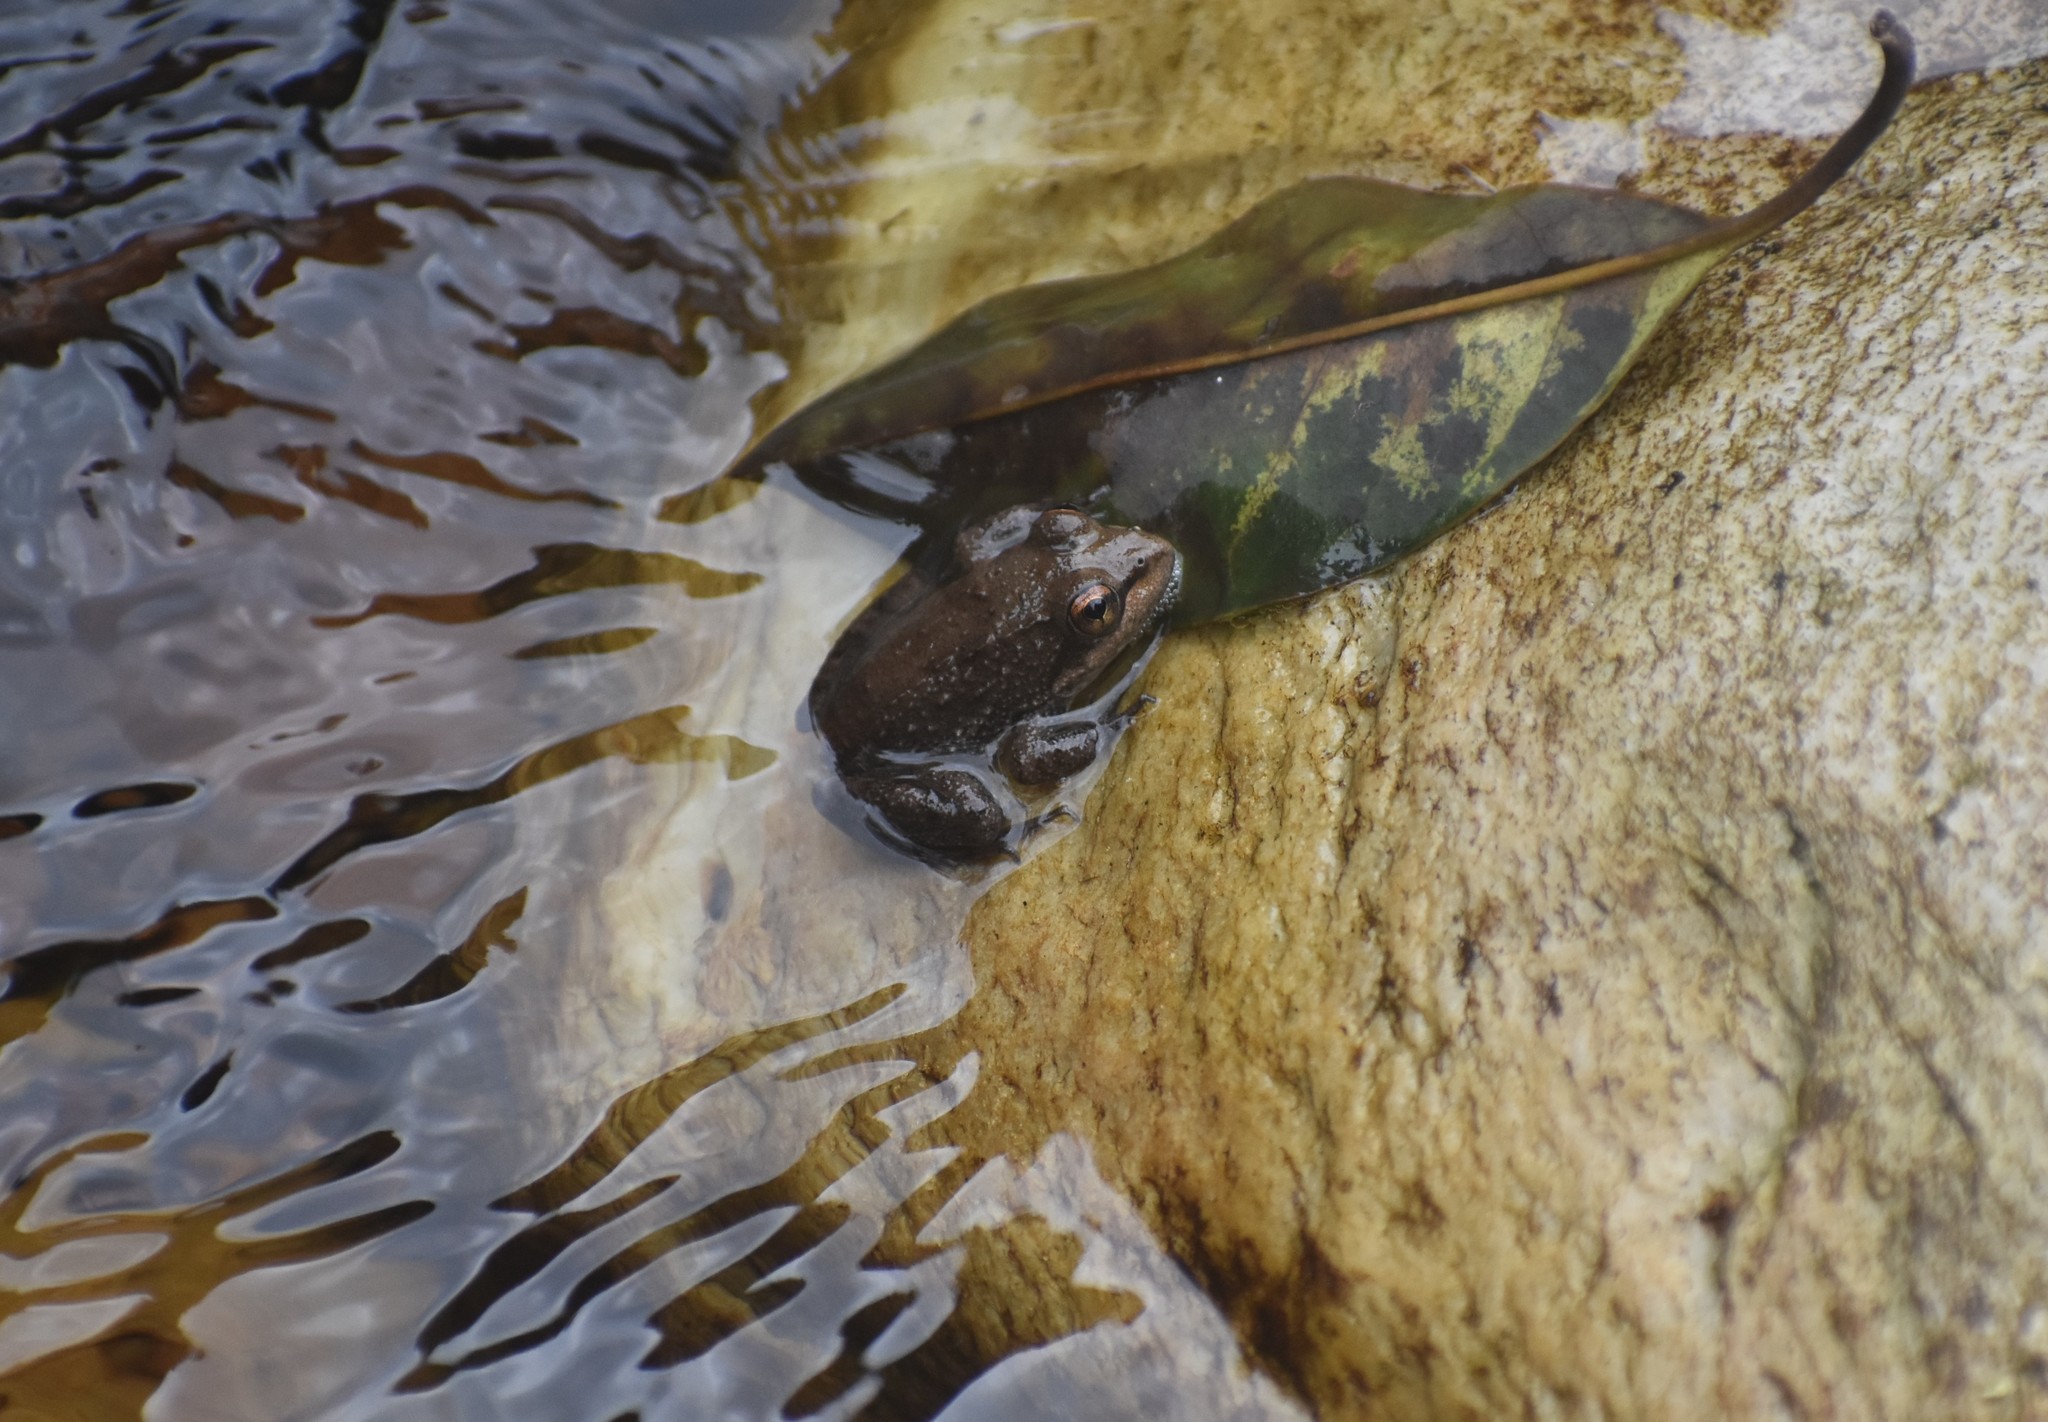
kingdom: Animalia
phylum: Chordata
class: Amphibia
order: Anura
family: Pyxicephalidae
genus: Amietia
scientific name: Amietia fuscigula
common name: Cape rana
